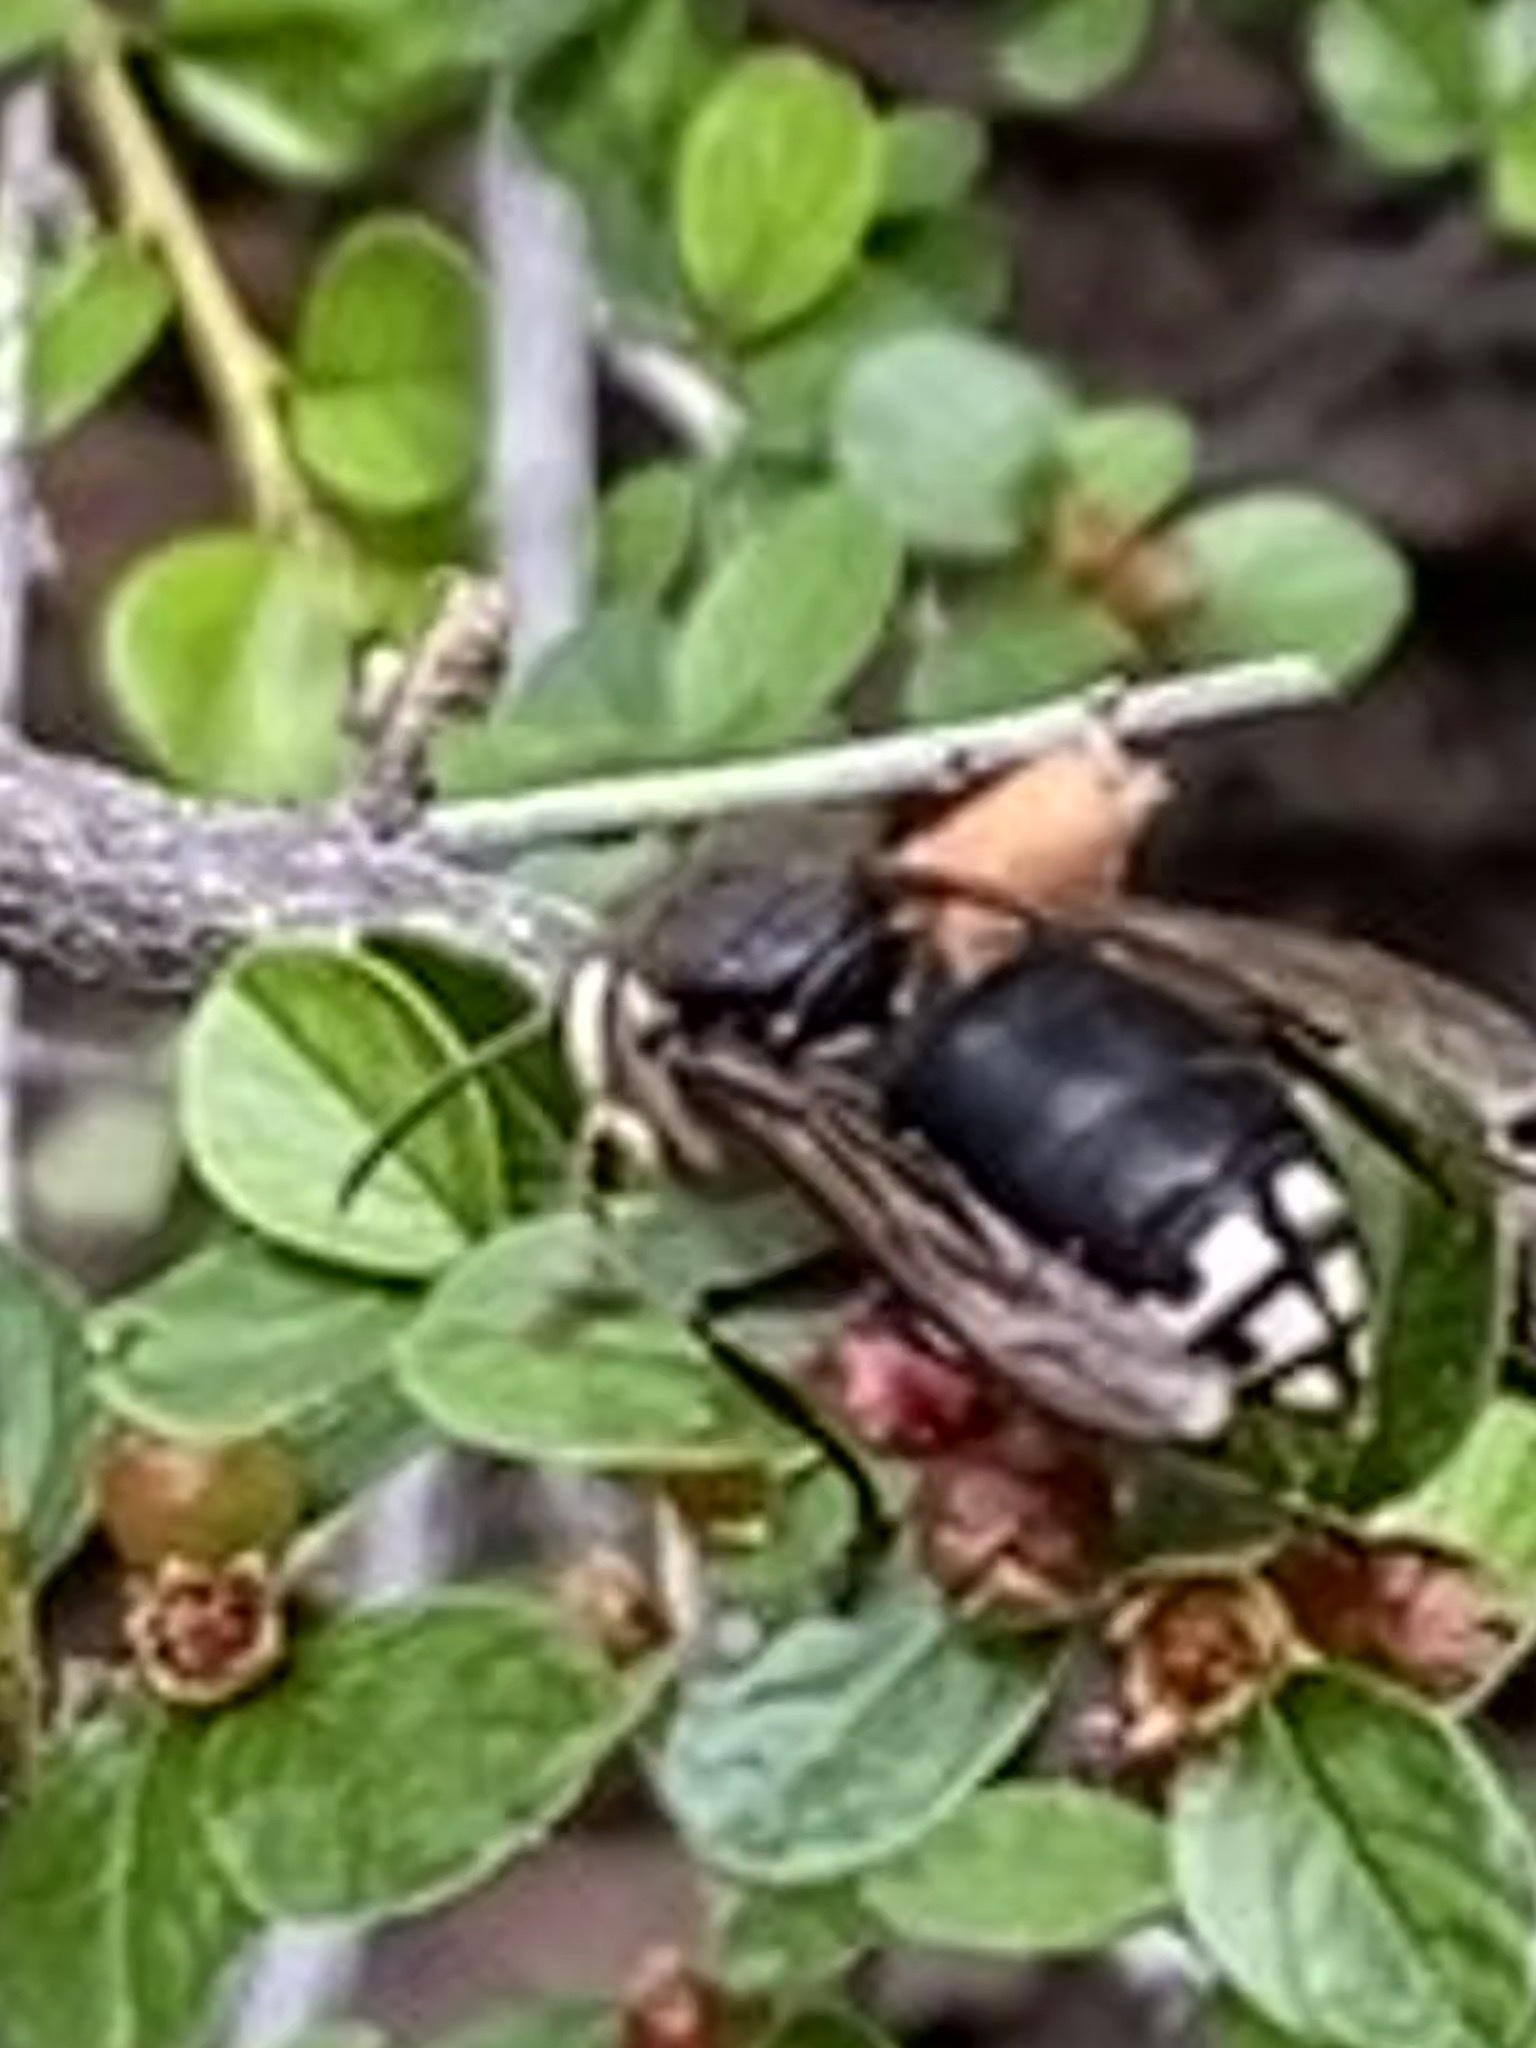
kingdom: Animalia
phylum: Arthropoda
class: Insecta
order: Hymenoptera
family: Vespidae
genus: Dolichovespula
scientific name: Dolichovespula maculata
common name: Bald-faced hornet
